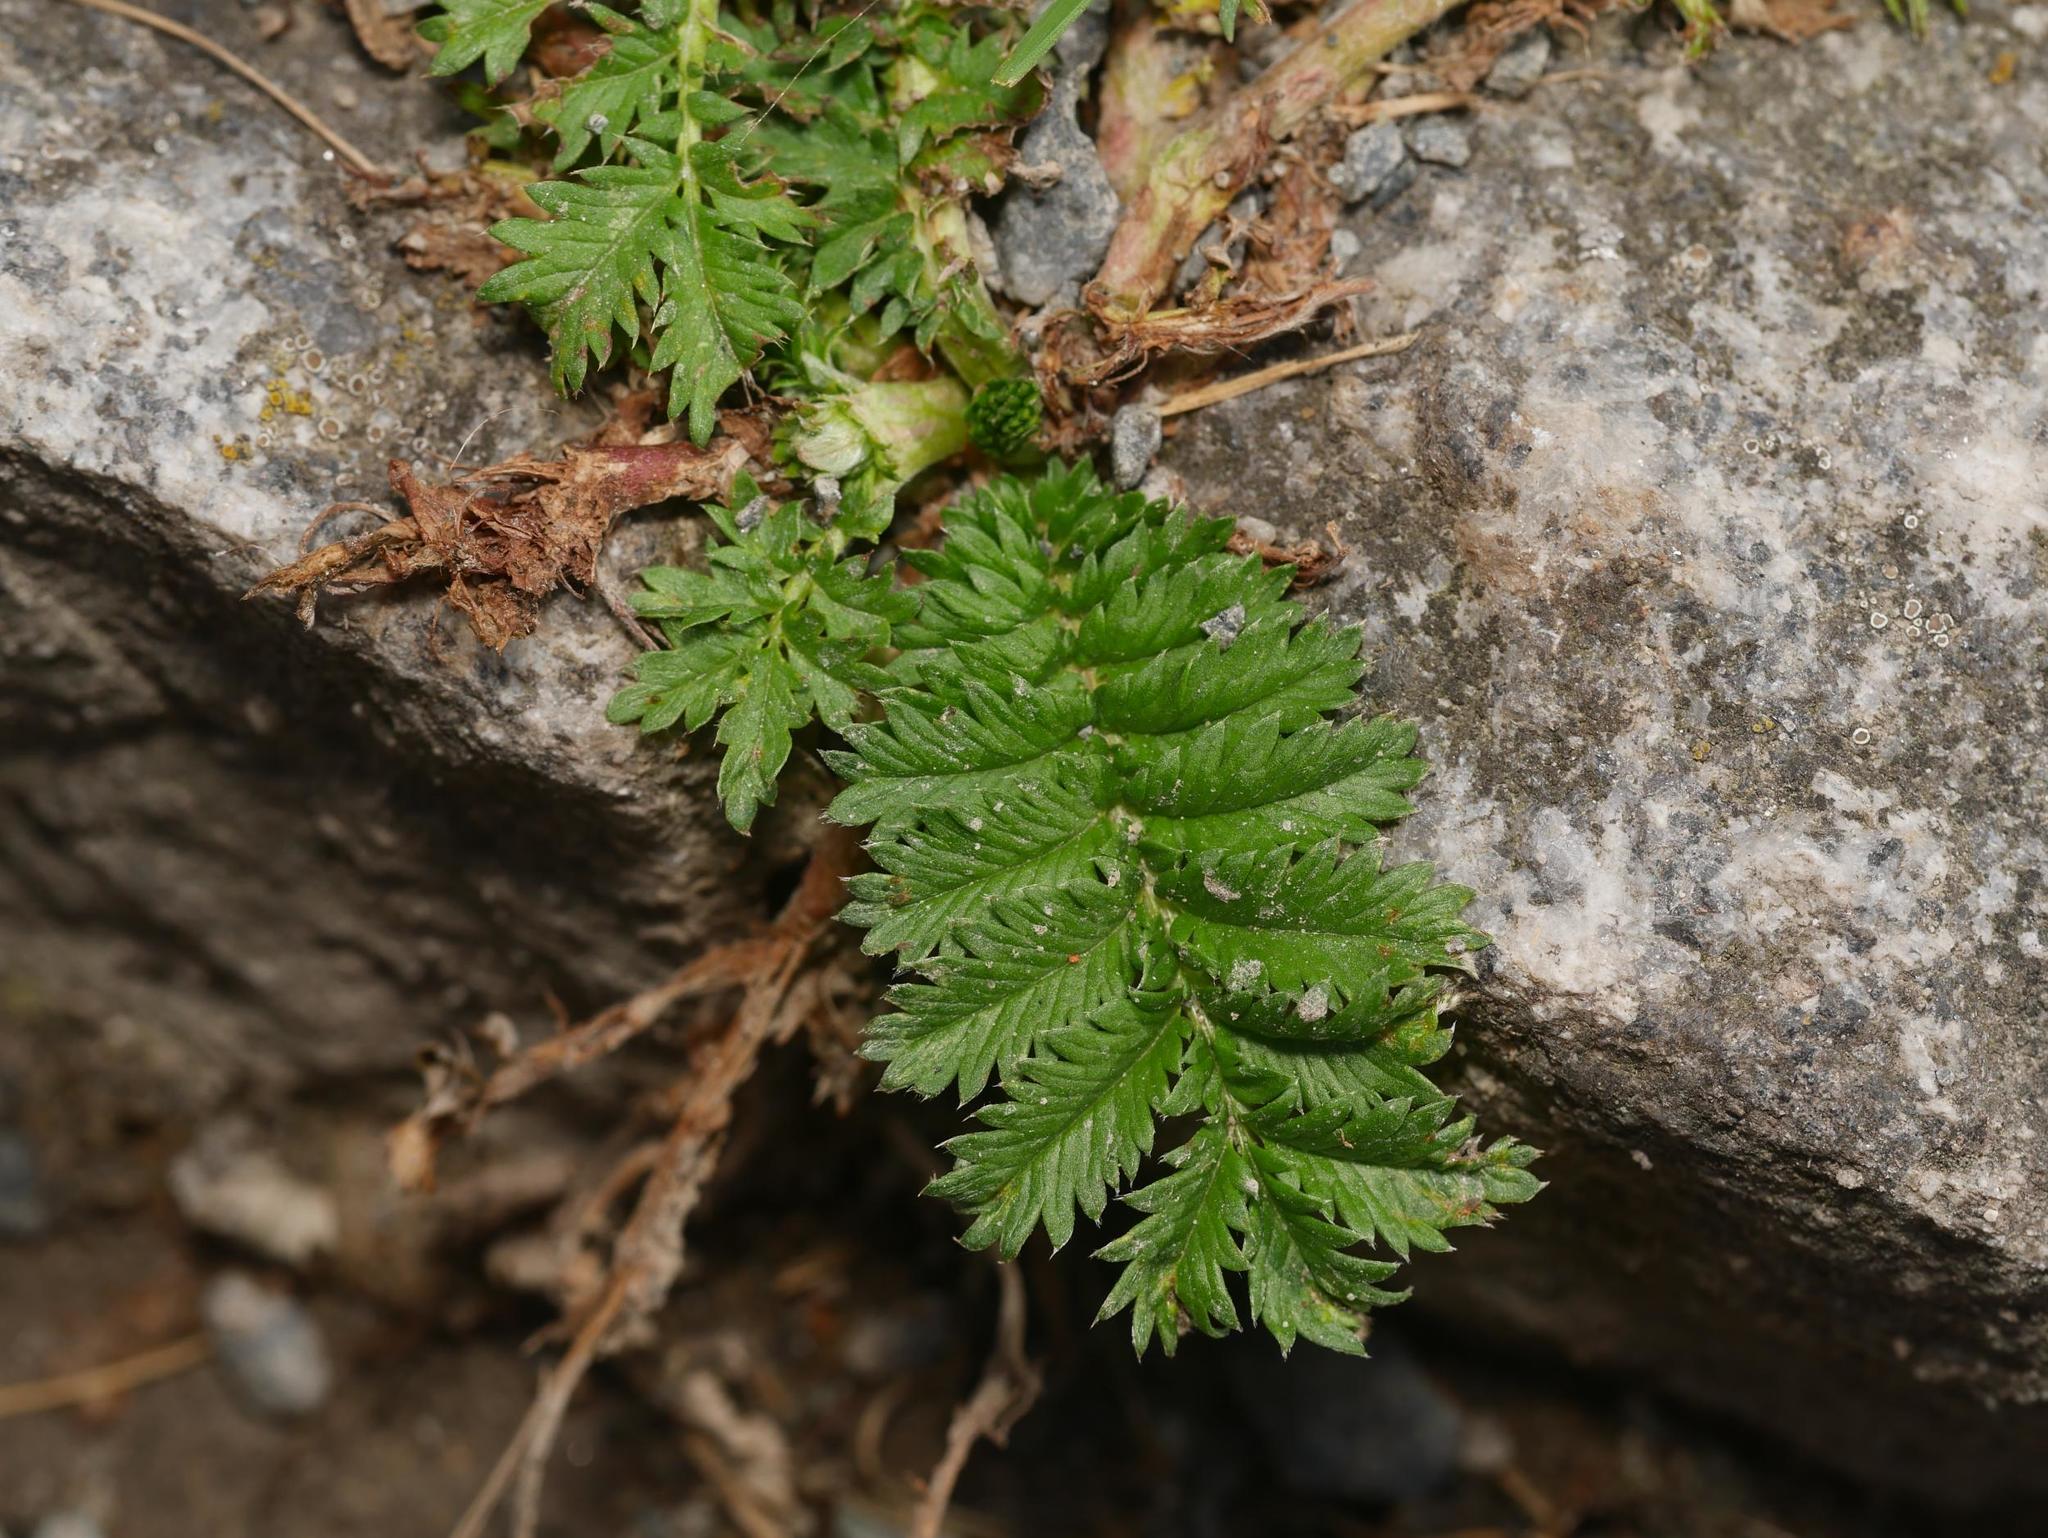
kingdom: Plantae
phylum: Tracheophyta
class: Magnoliopsida
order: Rosales
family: Rosaceae
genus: Argentina
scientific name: Argentina anserina
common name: Common silverweed
